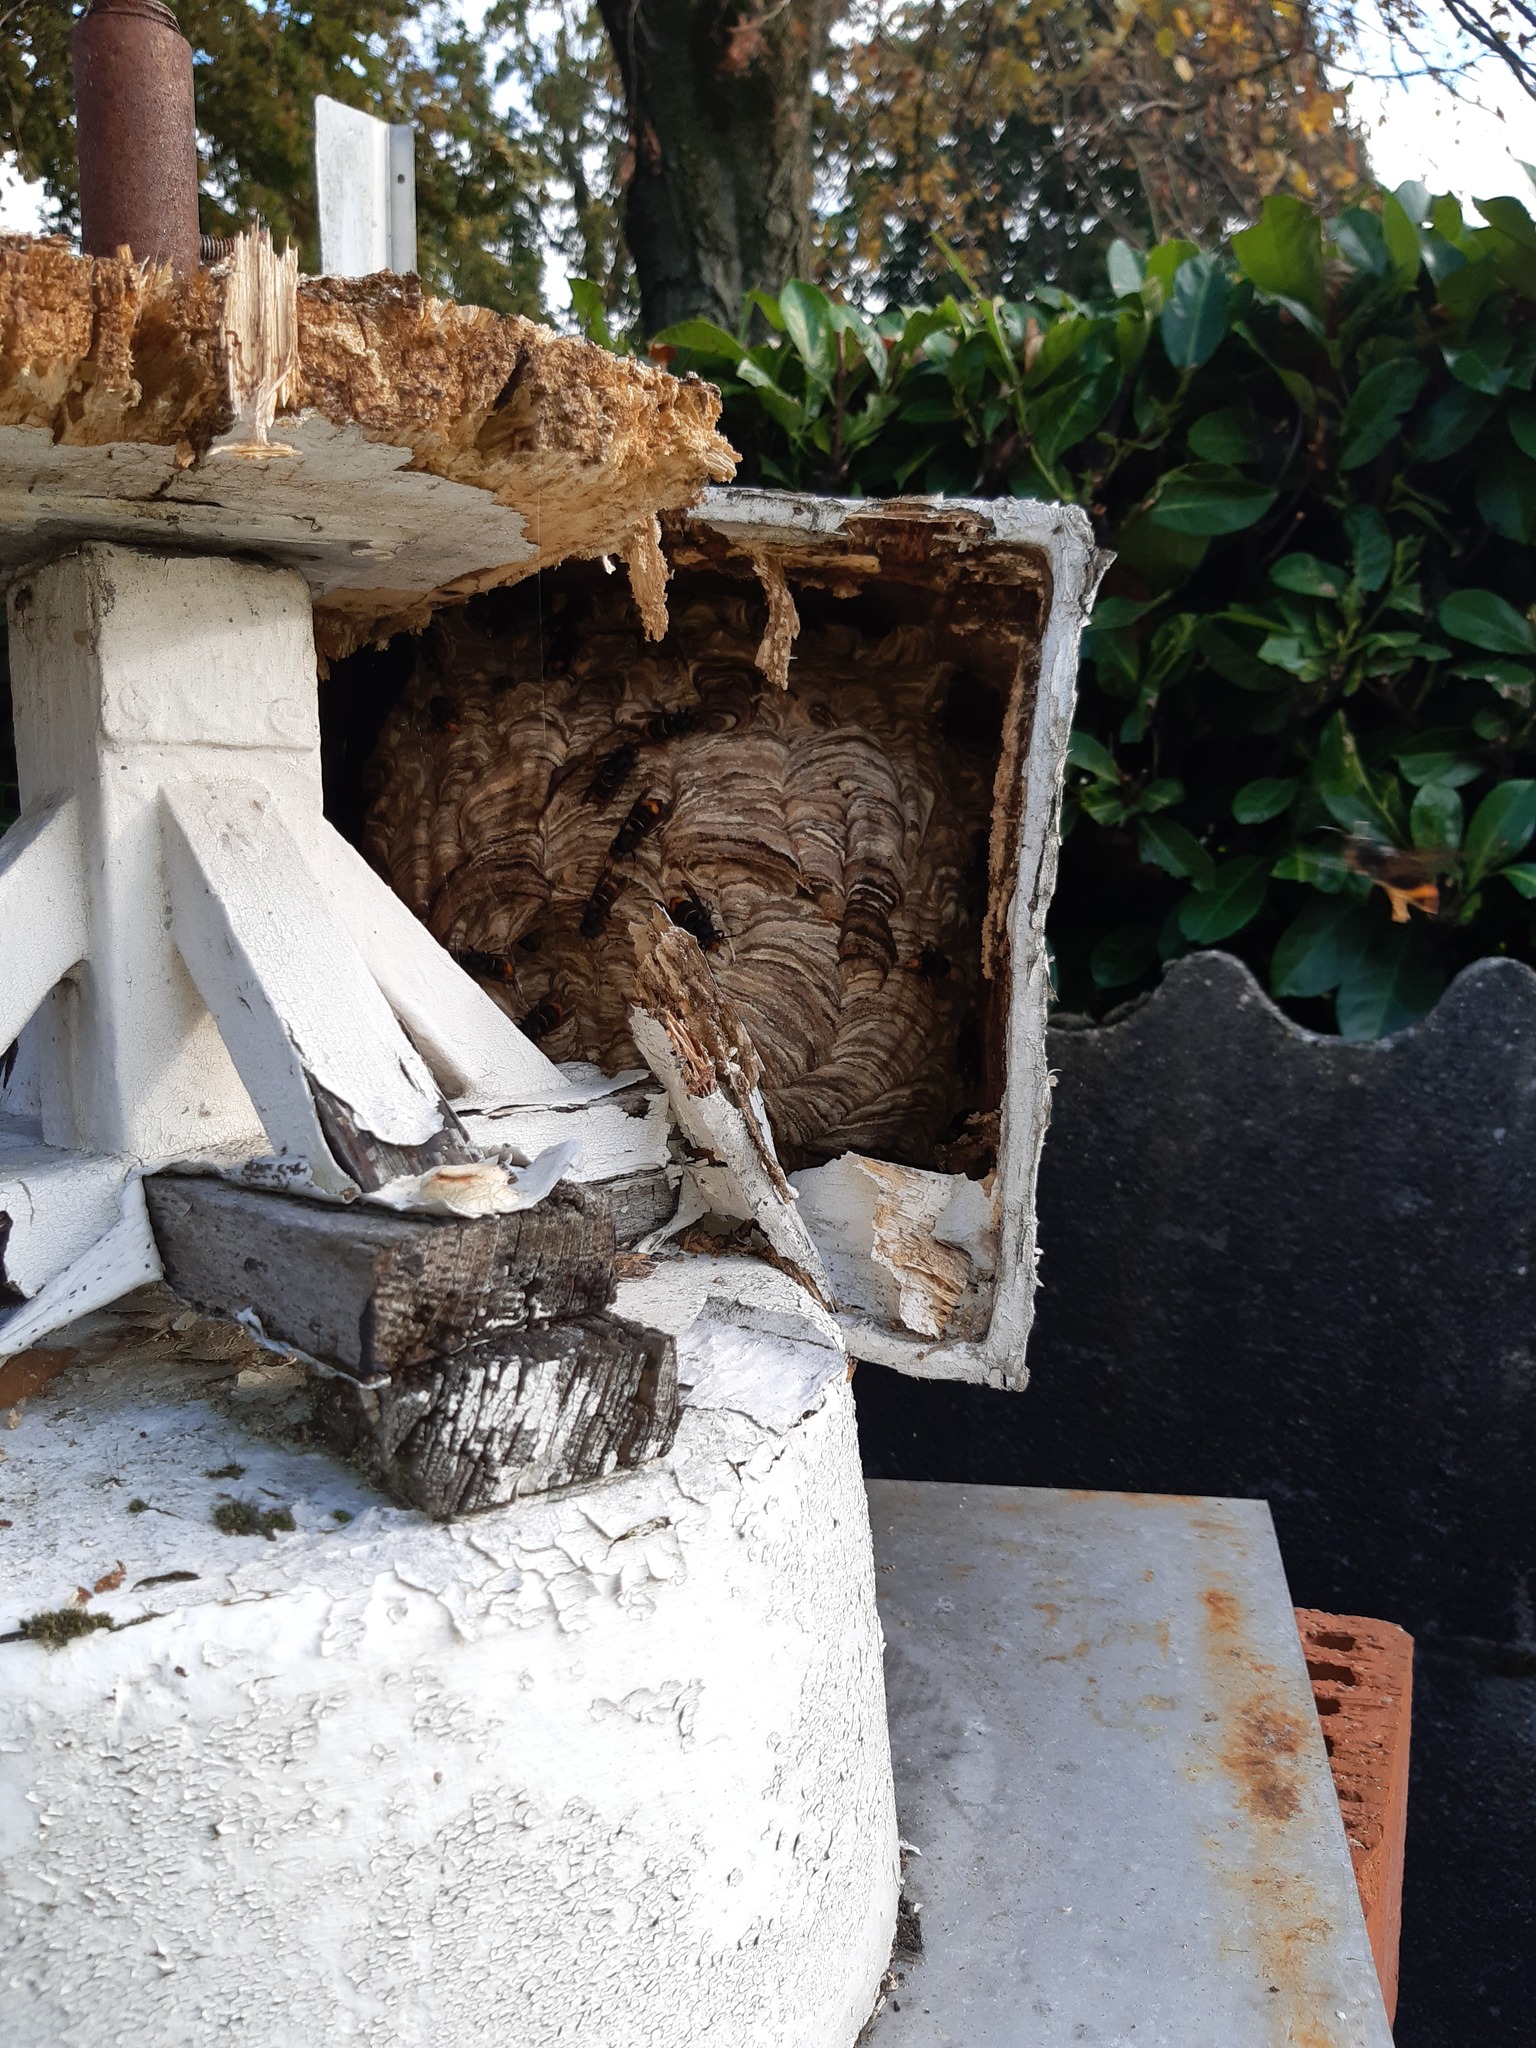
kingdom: Animalia
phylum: Arthropoda
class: Insecta
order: Hymenoptera
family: Vespidae
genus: Vespa
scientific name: Vespa velutina
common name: Asian hornet
